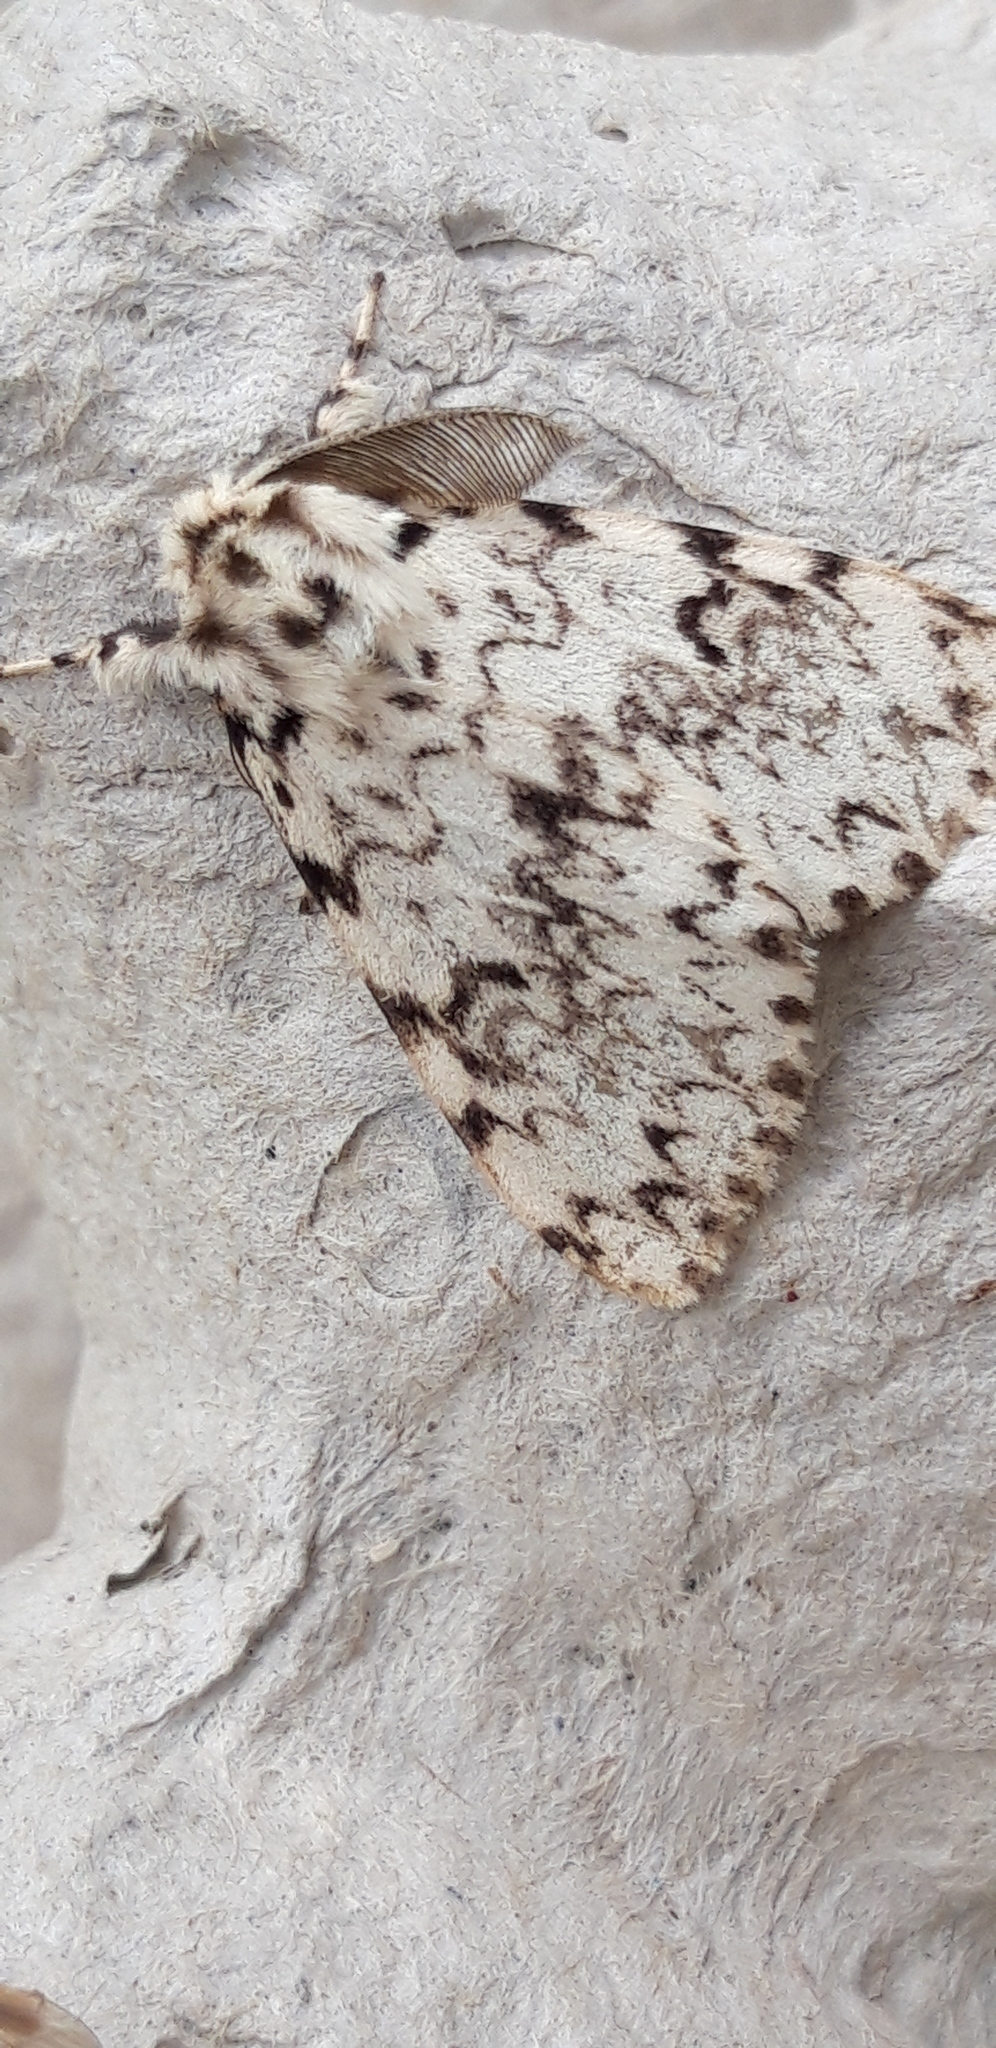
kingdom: Animalia
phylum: Arthropoda
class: Insecta
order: Lepidoptera
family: Erebidae
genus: Lymantria
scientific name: Lymantria monacha
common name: Black arches
